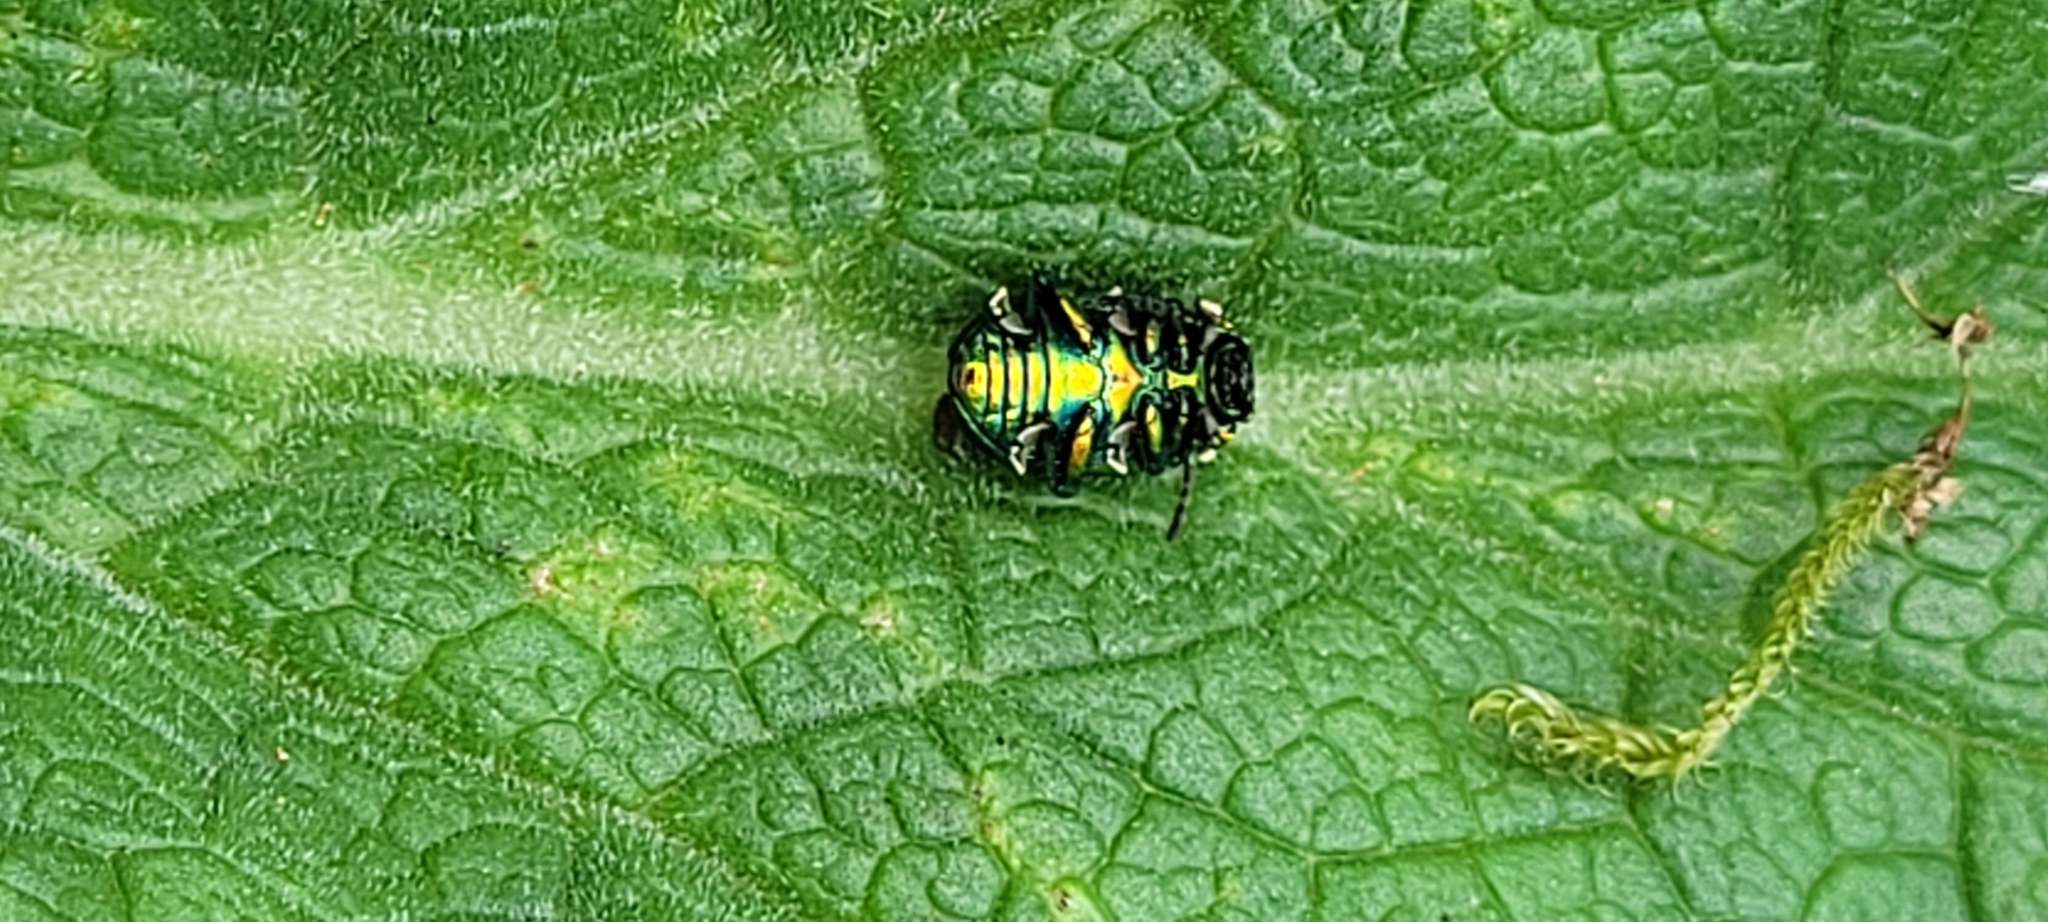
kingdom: Animalia
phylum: Arthropoda
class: Insecta
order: Coleoptera
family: Chrysomelidae
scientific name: Chrysomelidae
